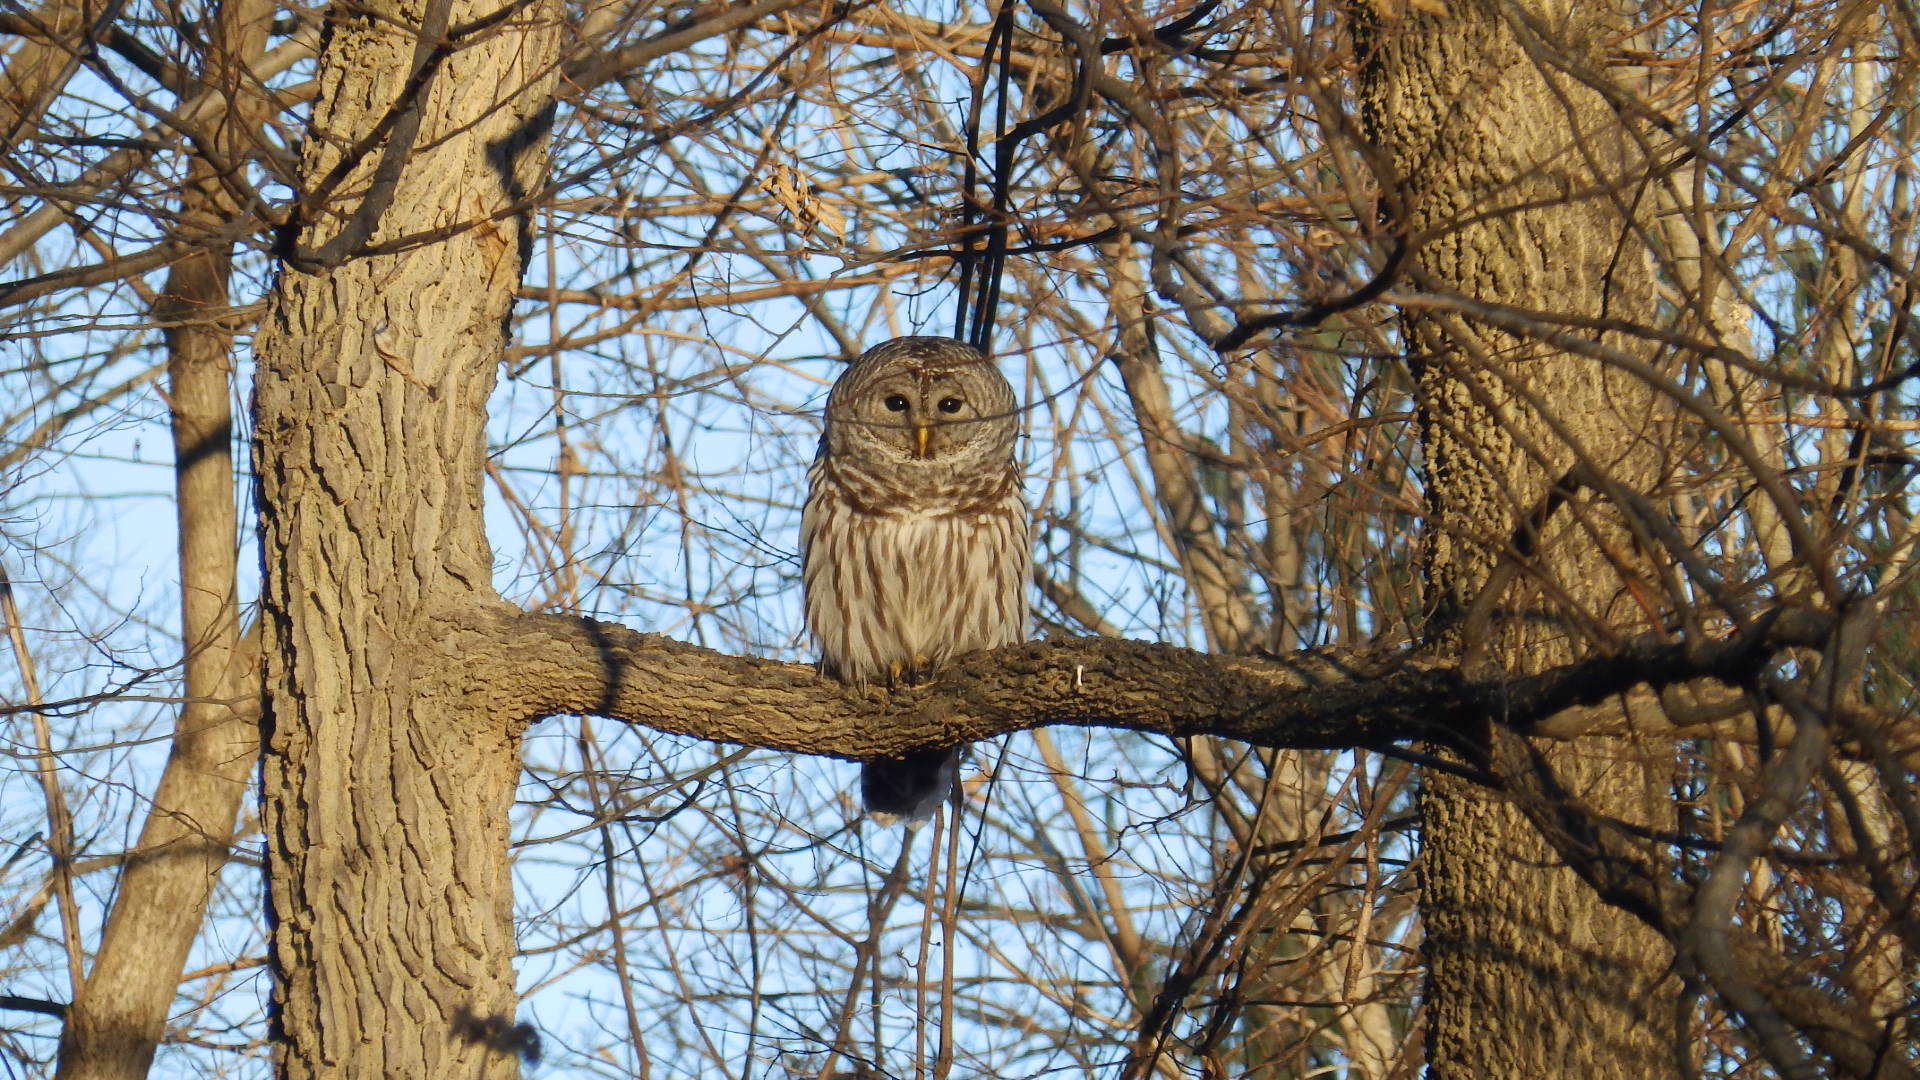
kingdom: Animalia
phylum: Chordata
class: Aves
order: Strigiformes
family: Strigidae
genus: Strix
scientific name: Strix varia
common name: Barred owl
